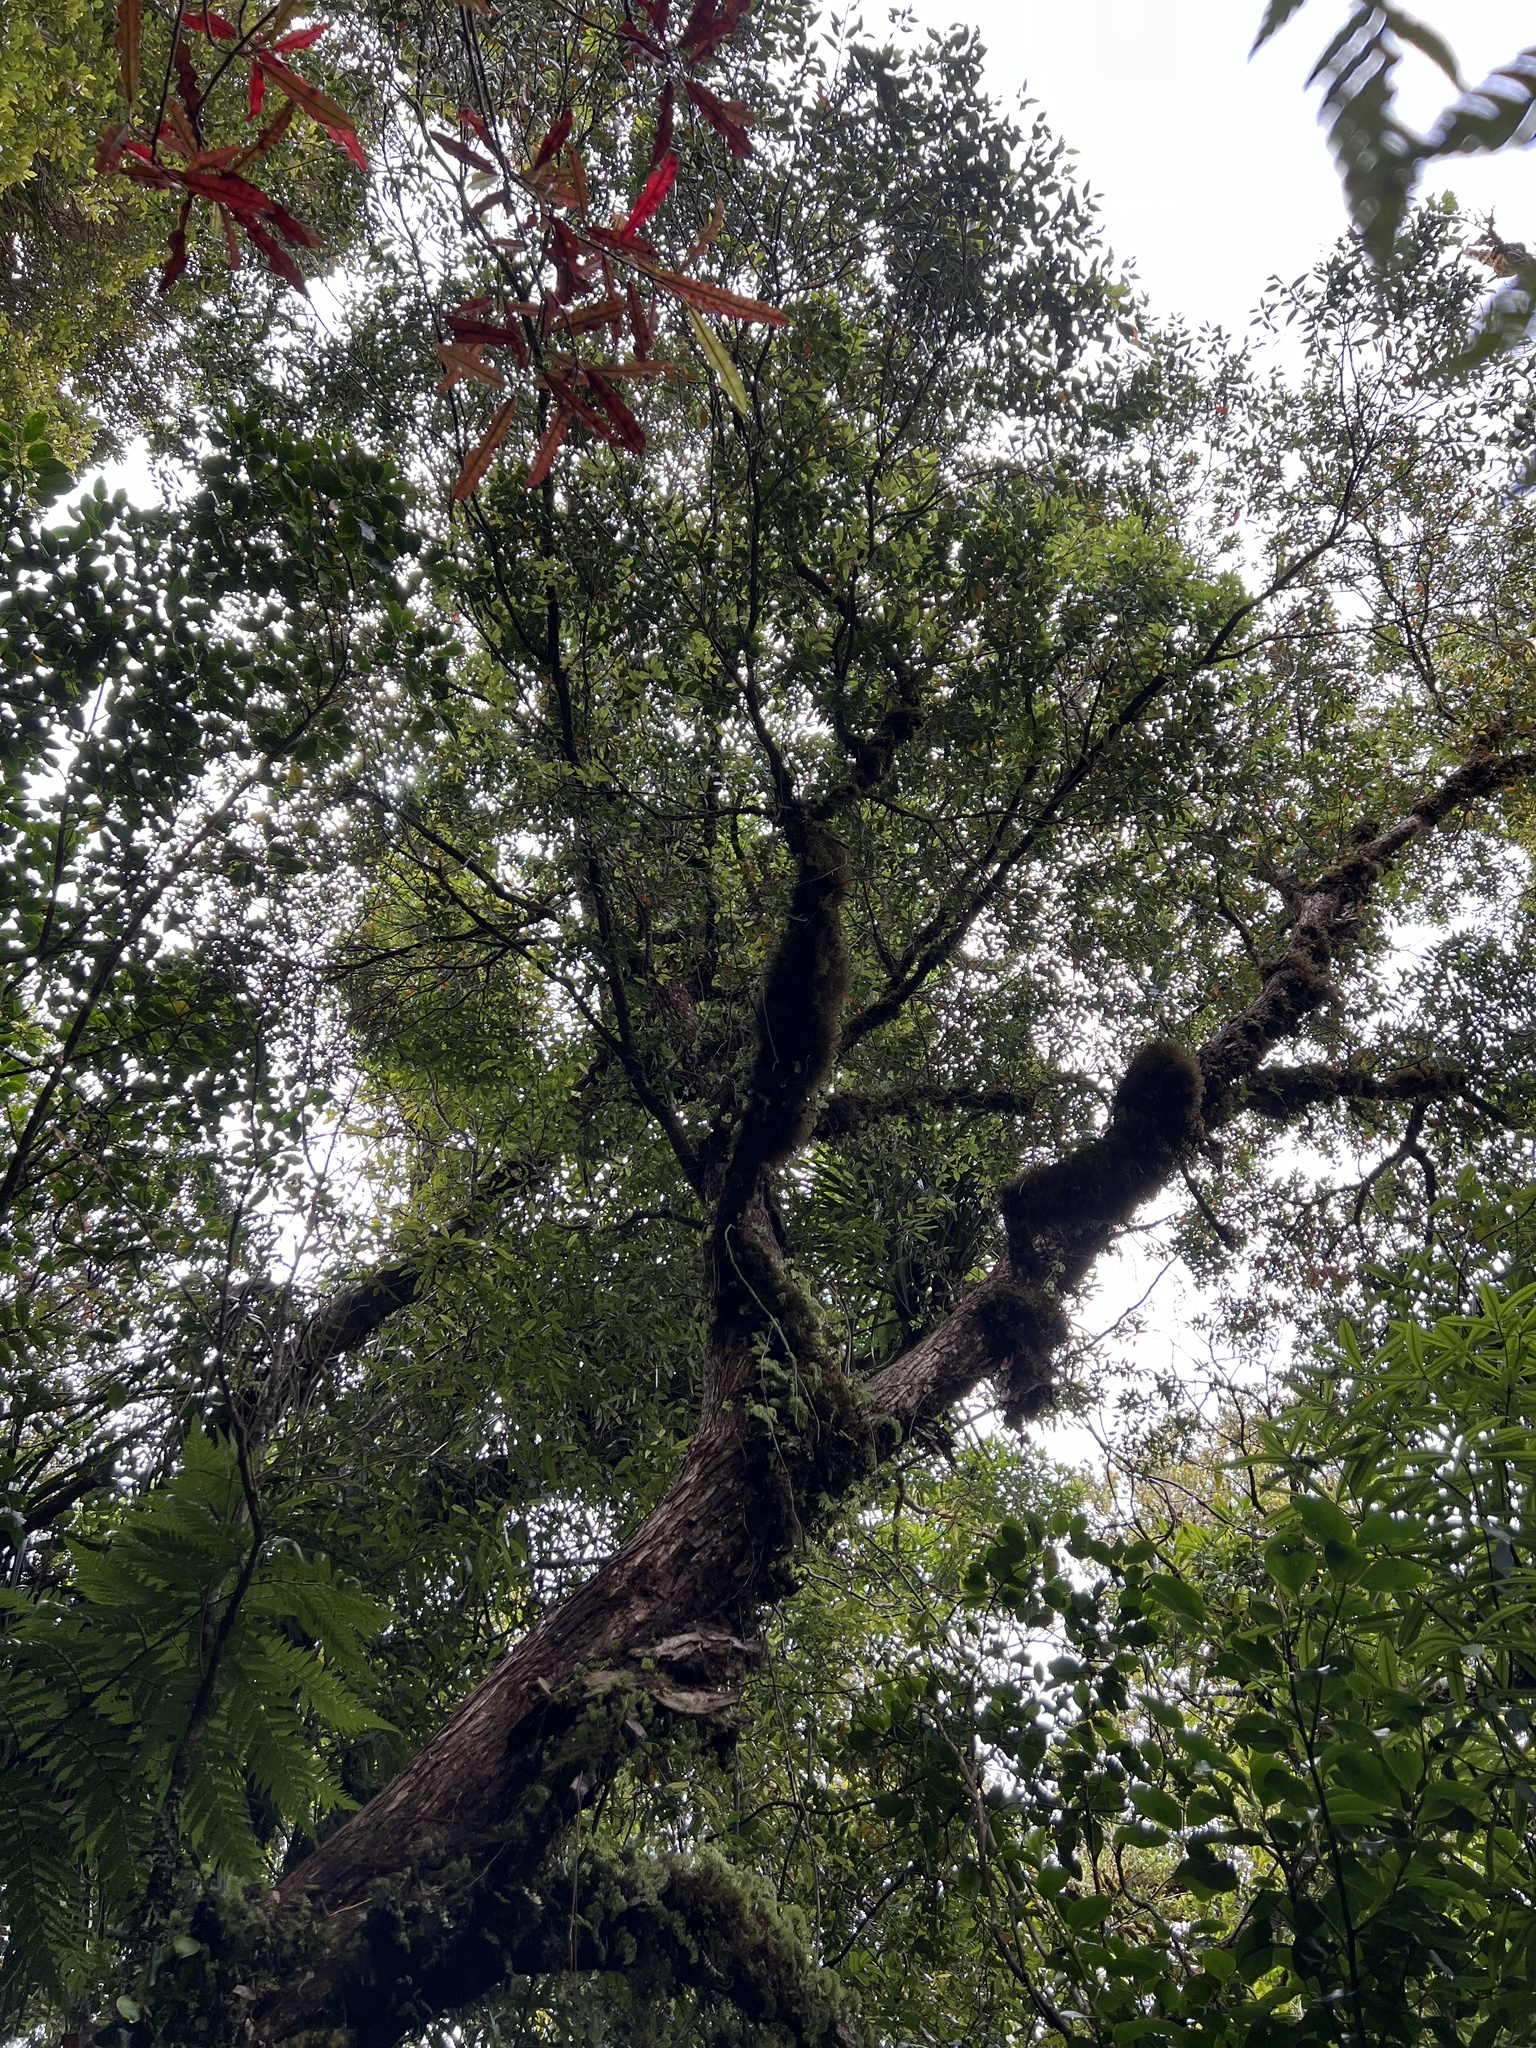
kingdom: Plantae
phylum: Tracheophyta
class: Magnoliopsida
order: Myrtales
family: Myrtaceae
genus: Metrosideros
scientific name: Metrosideros robusta
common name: Northern rata
